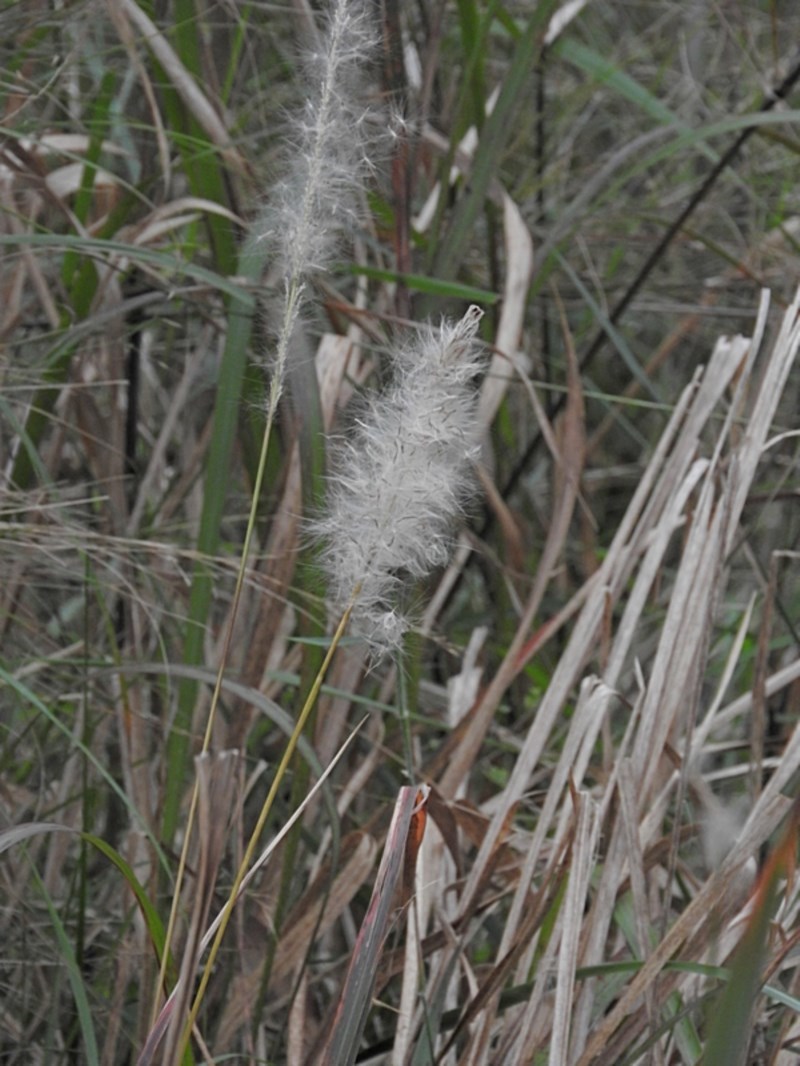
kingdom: Plantae
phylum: Tracheophyta
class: Liliopsida
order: Poales
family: Poaceae
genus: Imperata
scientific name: Imperata cylindrica
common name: Cogongrass
